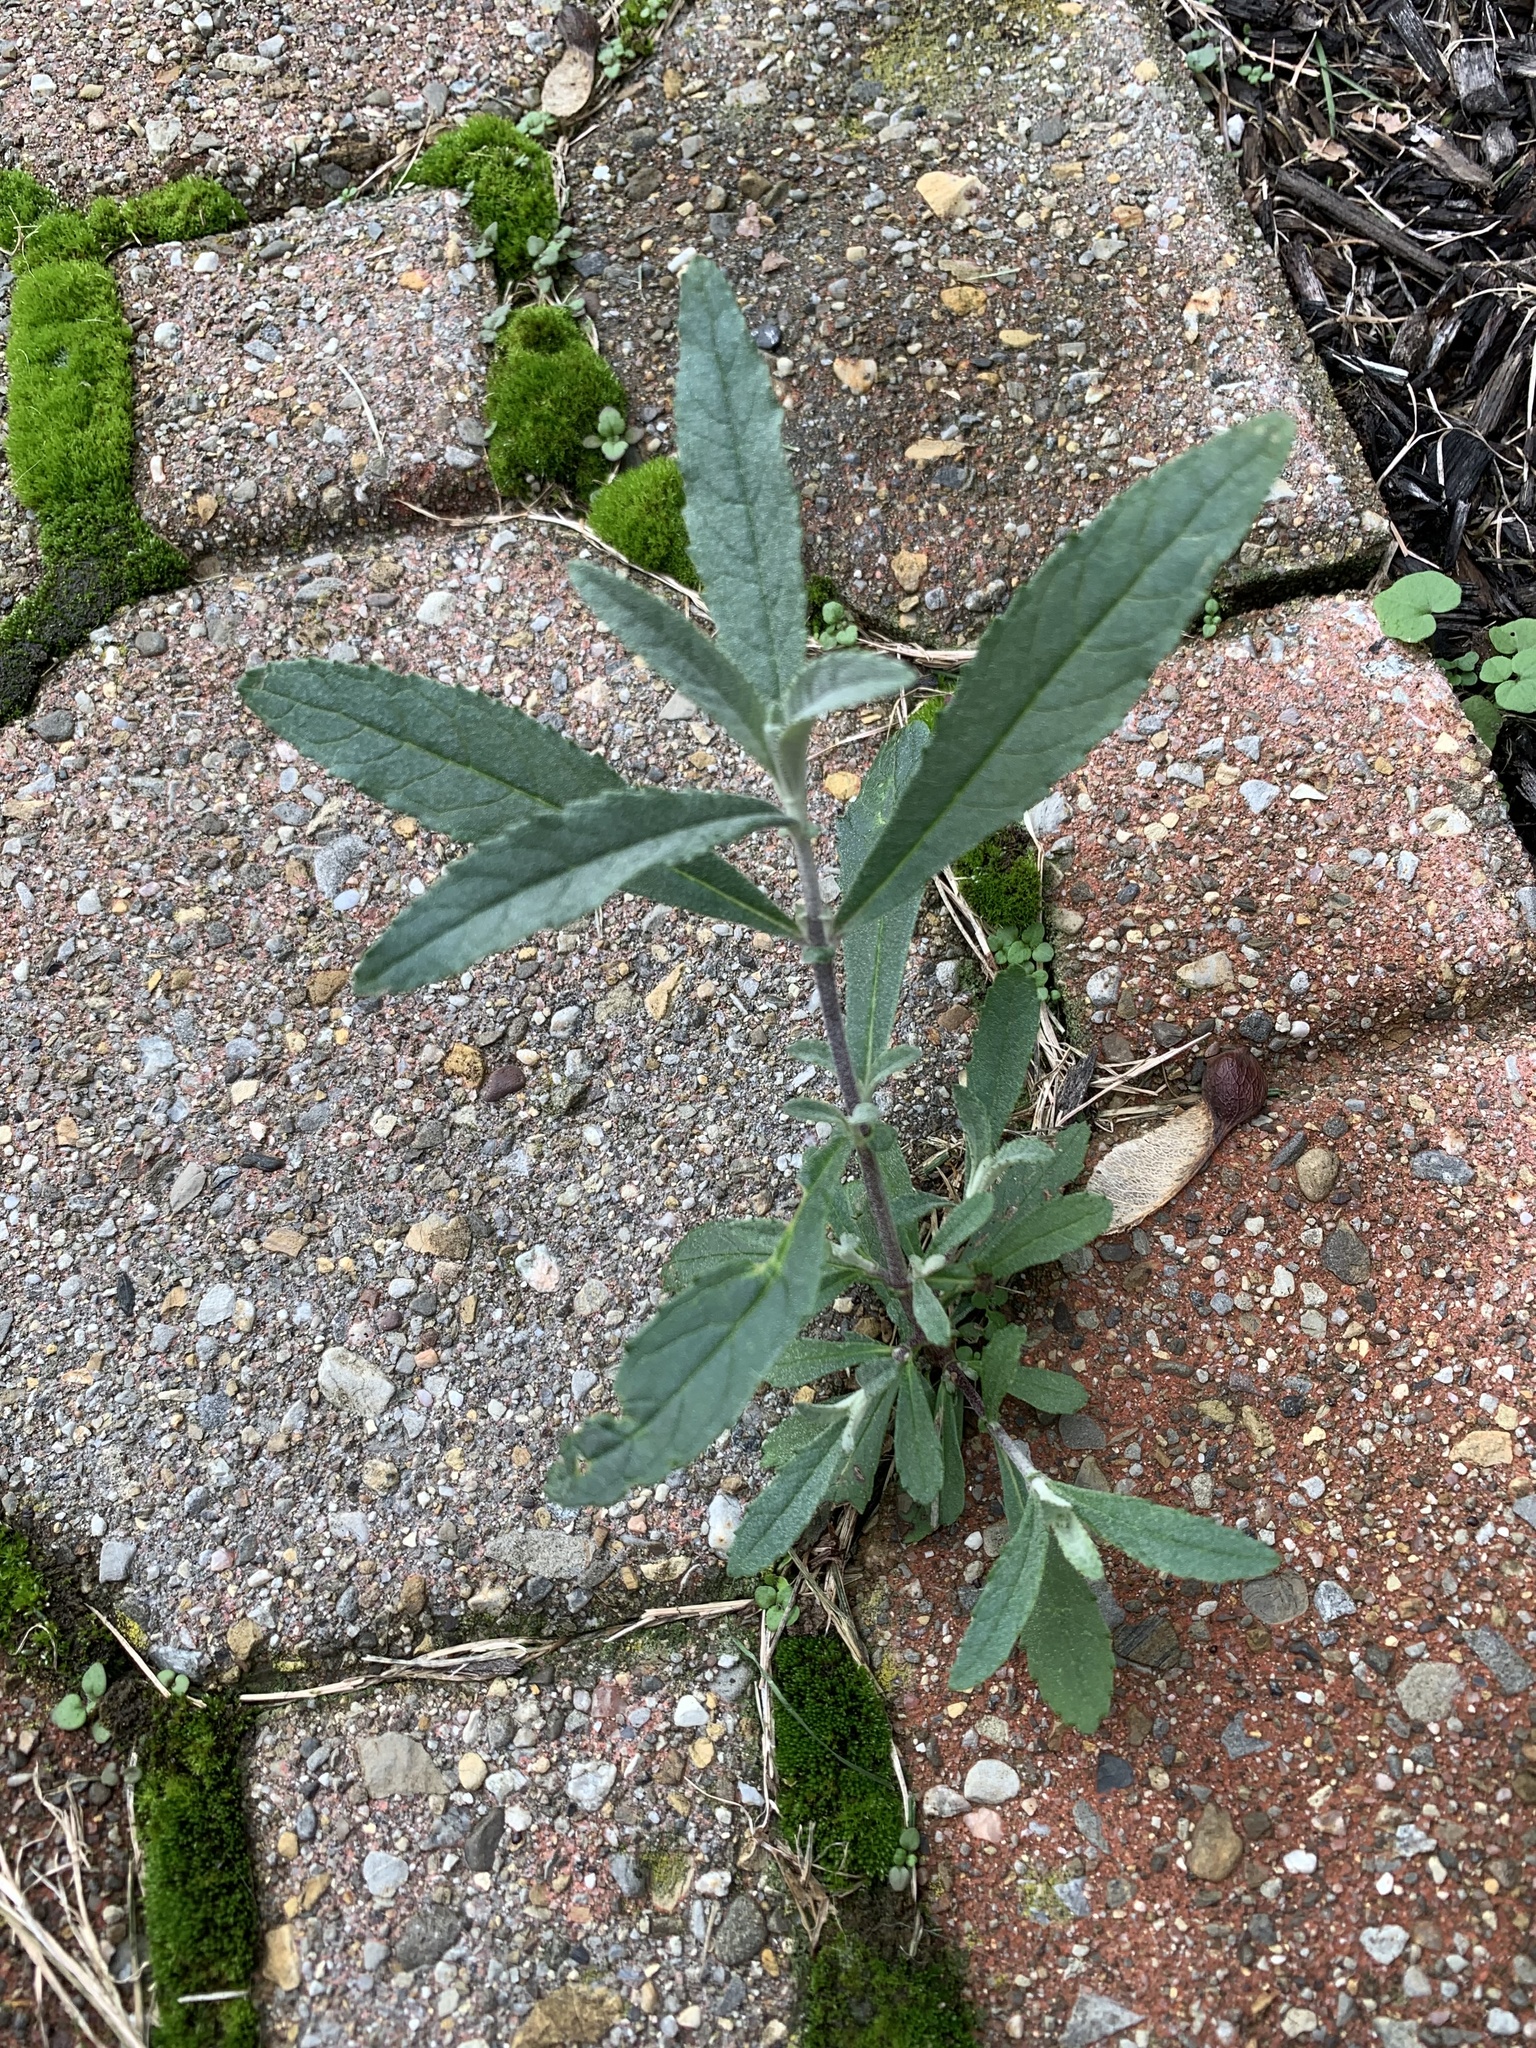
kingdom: Plantae
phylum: Tracheophyta
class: Magnoliopsida
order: Lamiales
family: Scrophulariaceae
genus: Buddleja
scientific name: Buddleja davidii
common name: Butterfly-bush
